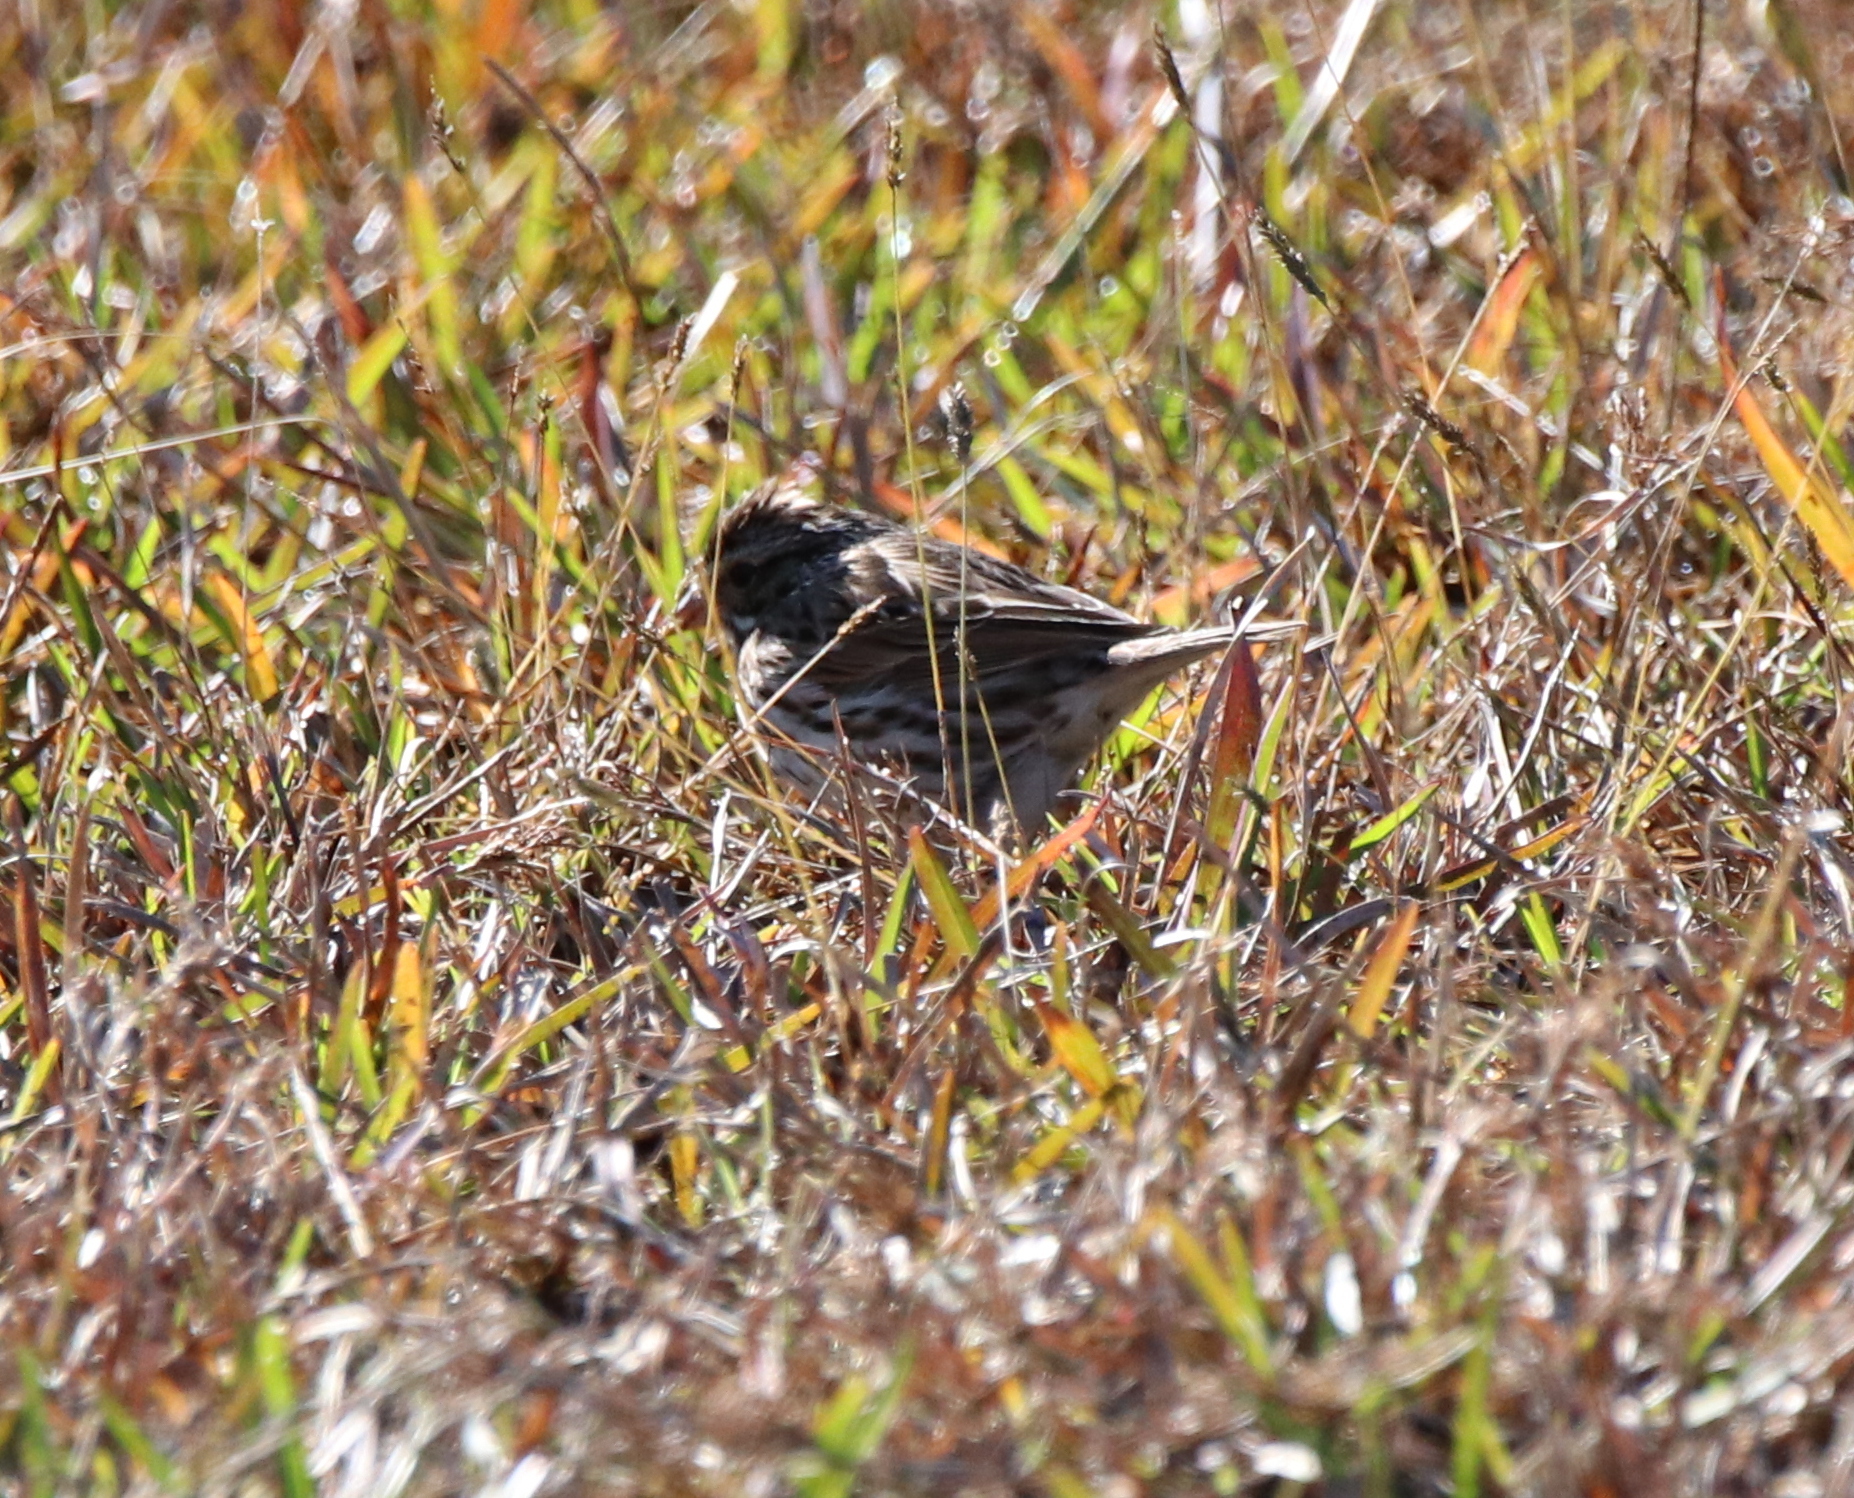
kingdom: Animalia
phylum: Chordata
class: Aves
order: Passeriformes
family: Passerellidae
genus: Passerculus
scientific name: Passerculus sandwichensis
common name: Savannah sparrow
